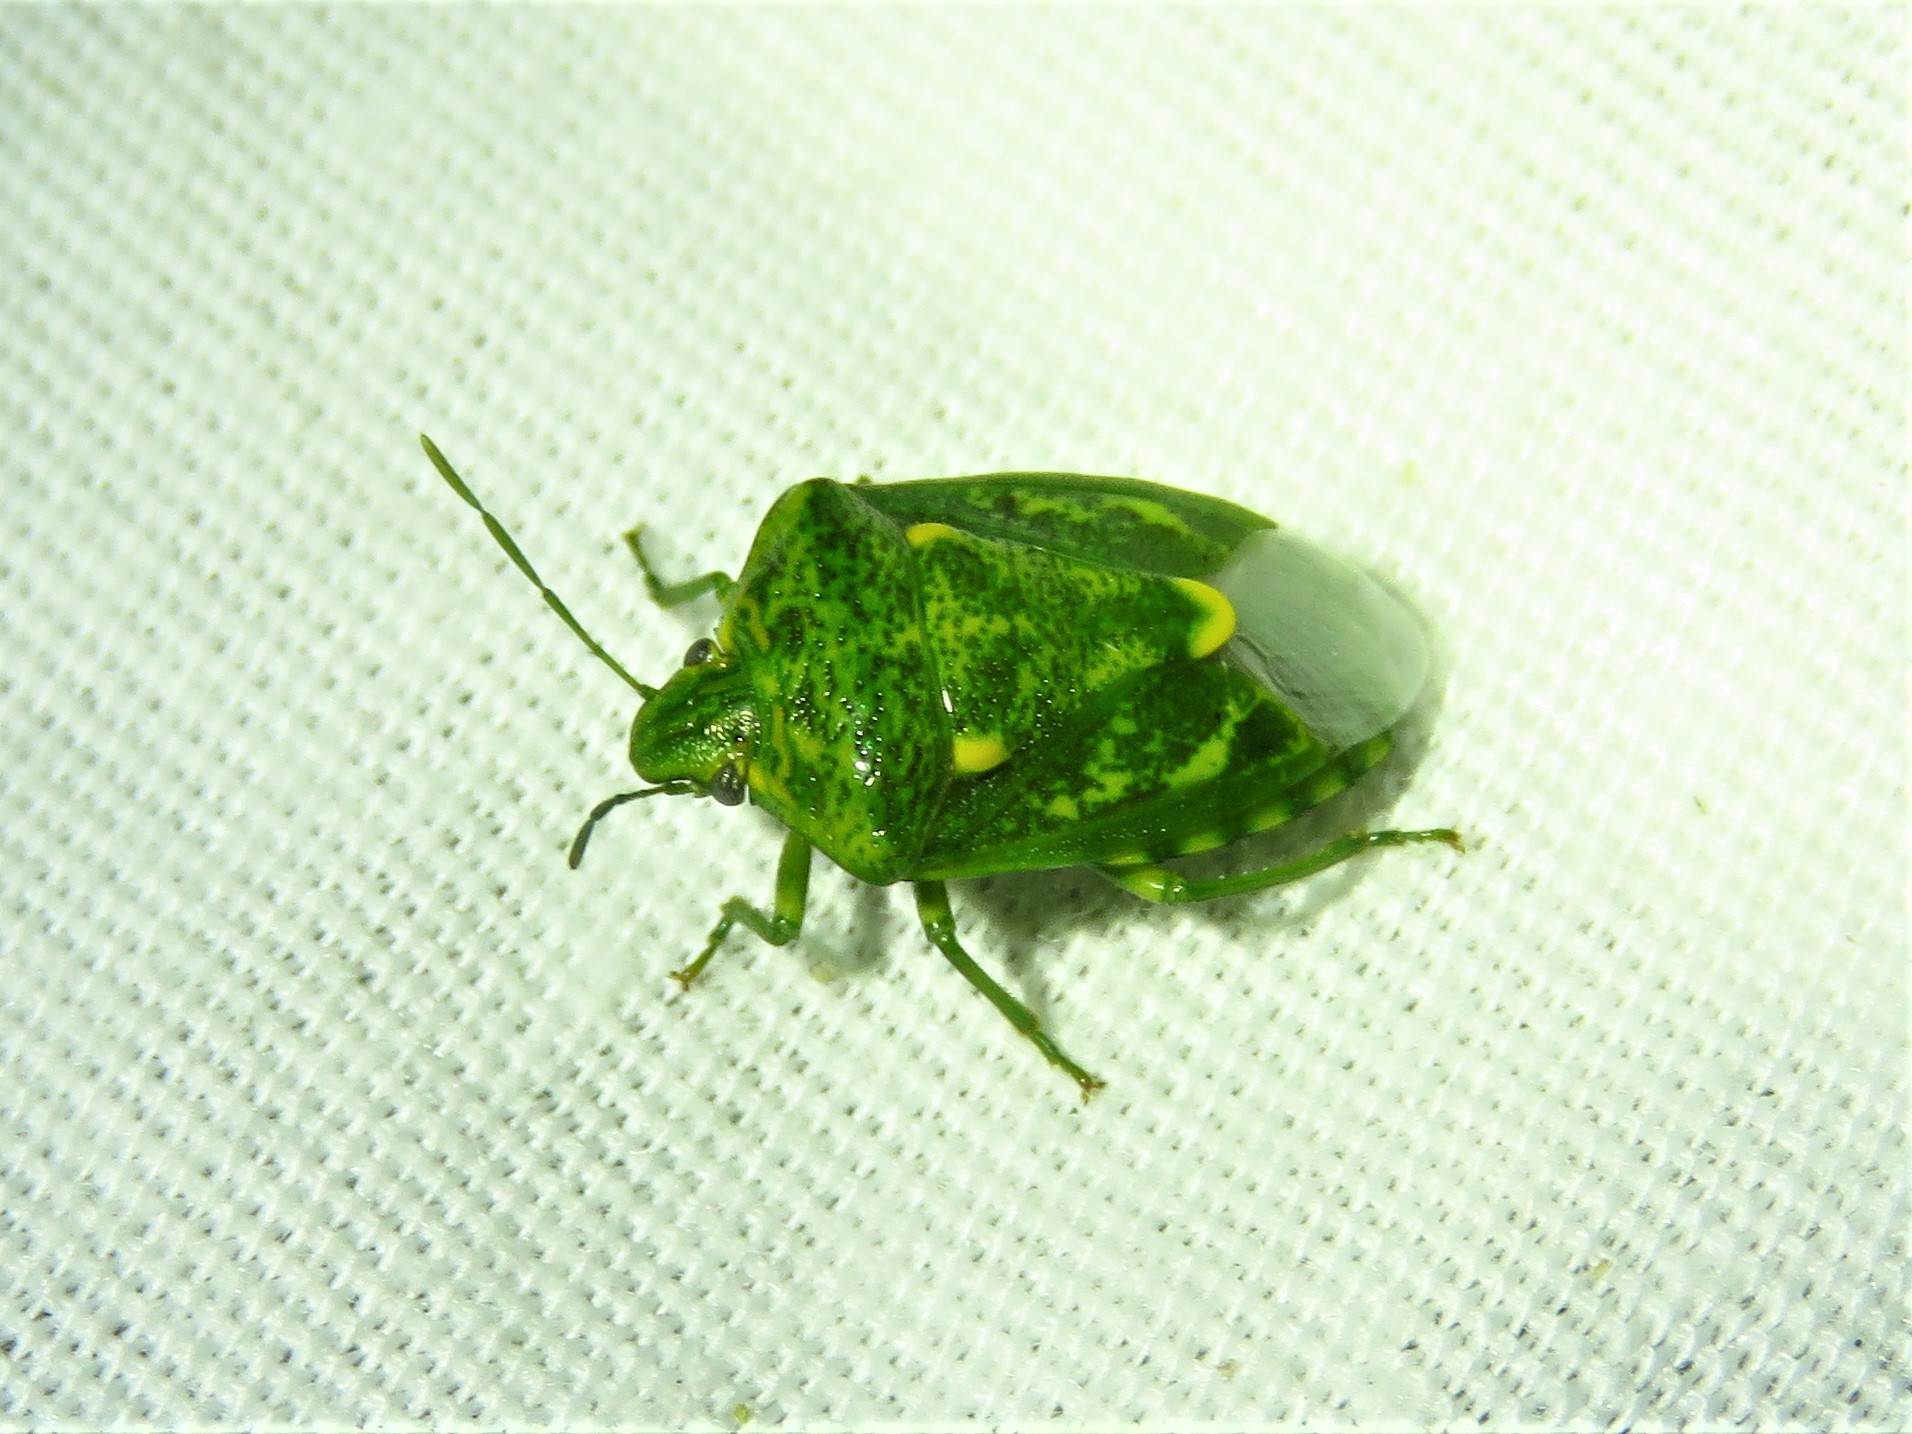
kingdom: Animalia
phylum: Arthropoda
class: Insecta
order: Hemiptera
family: Pentatomidae
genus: Banasa
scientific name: Banasa euchlora
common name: Cedar berry bug
